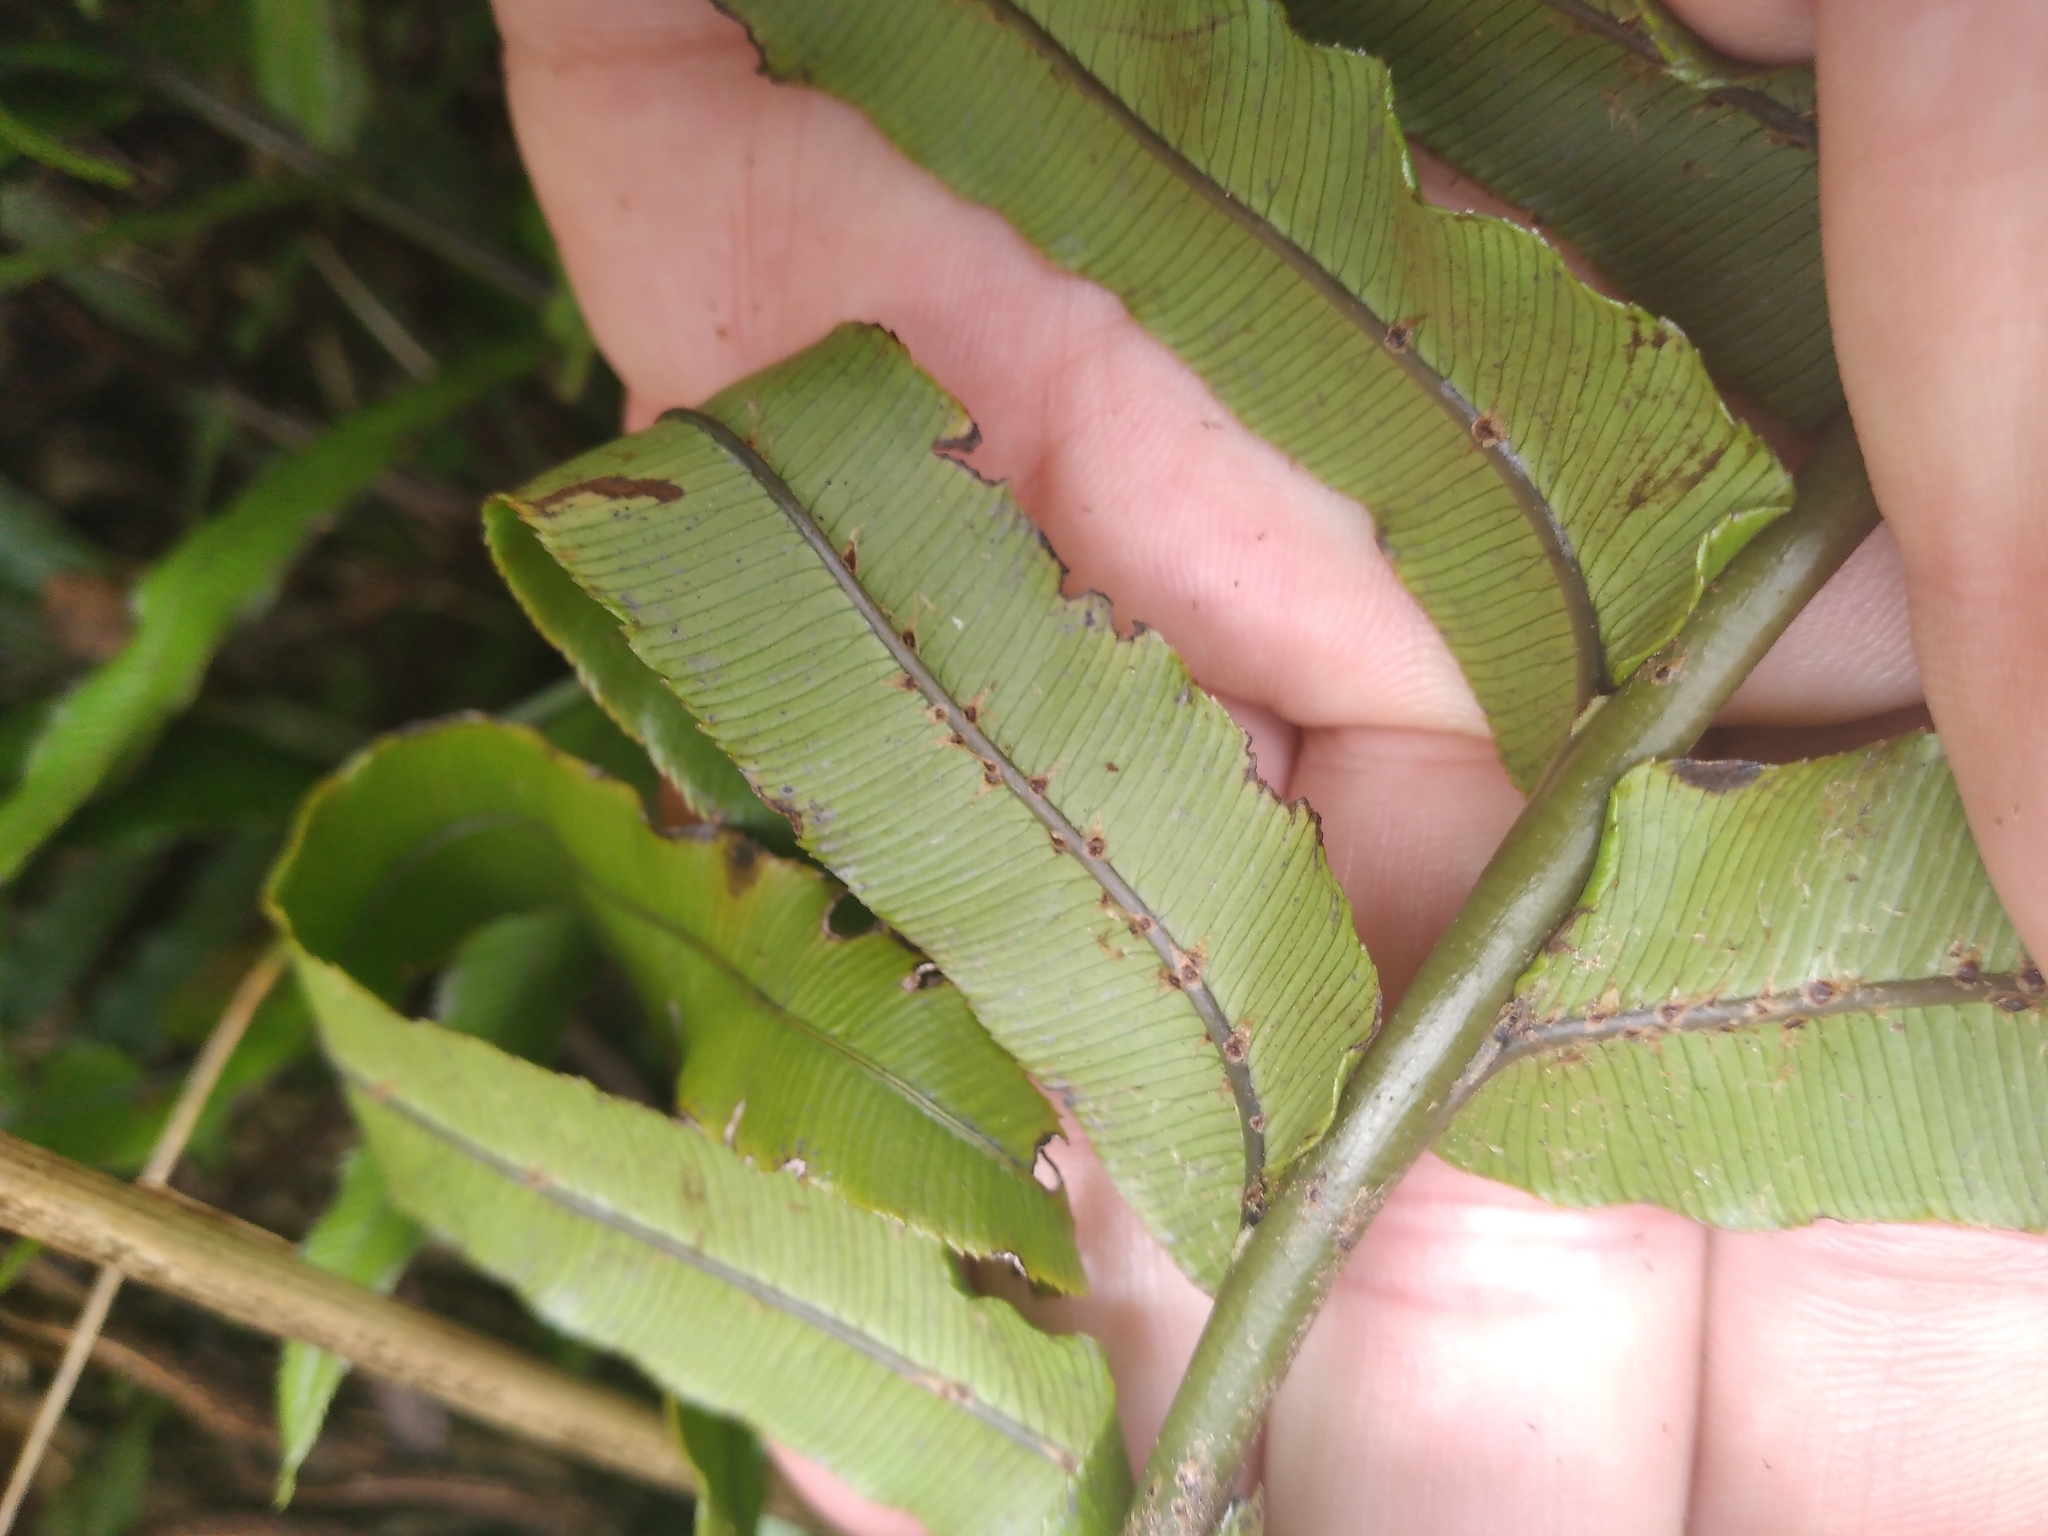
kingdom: Plantae
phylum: Tracheophyta
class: Polypodiopsida
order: Polypodiales
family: Blechnaceae
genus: Parablechnum
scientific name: Parablechnum montanum
